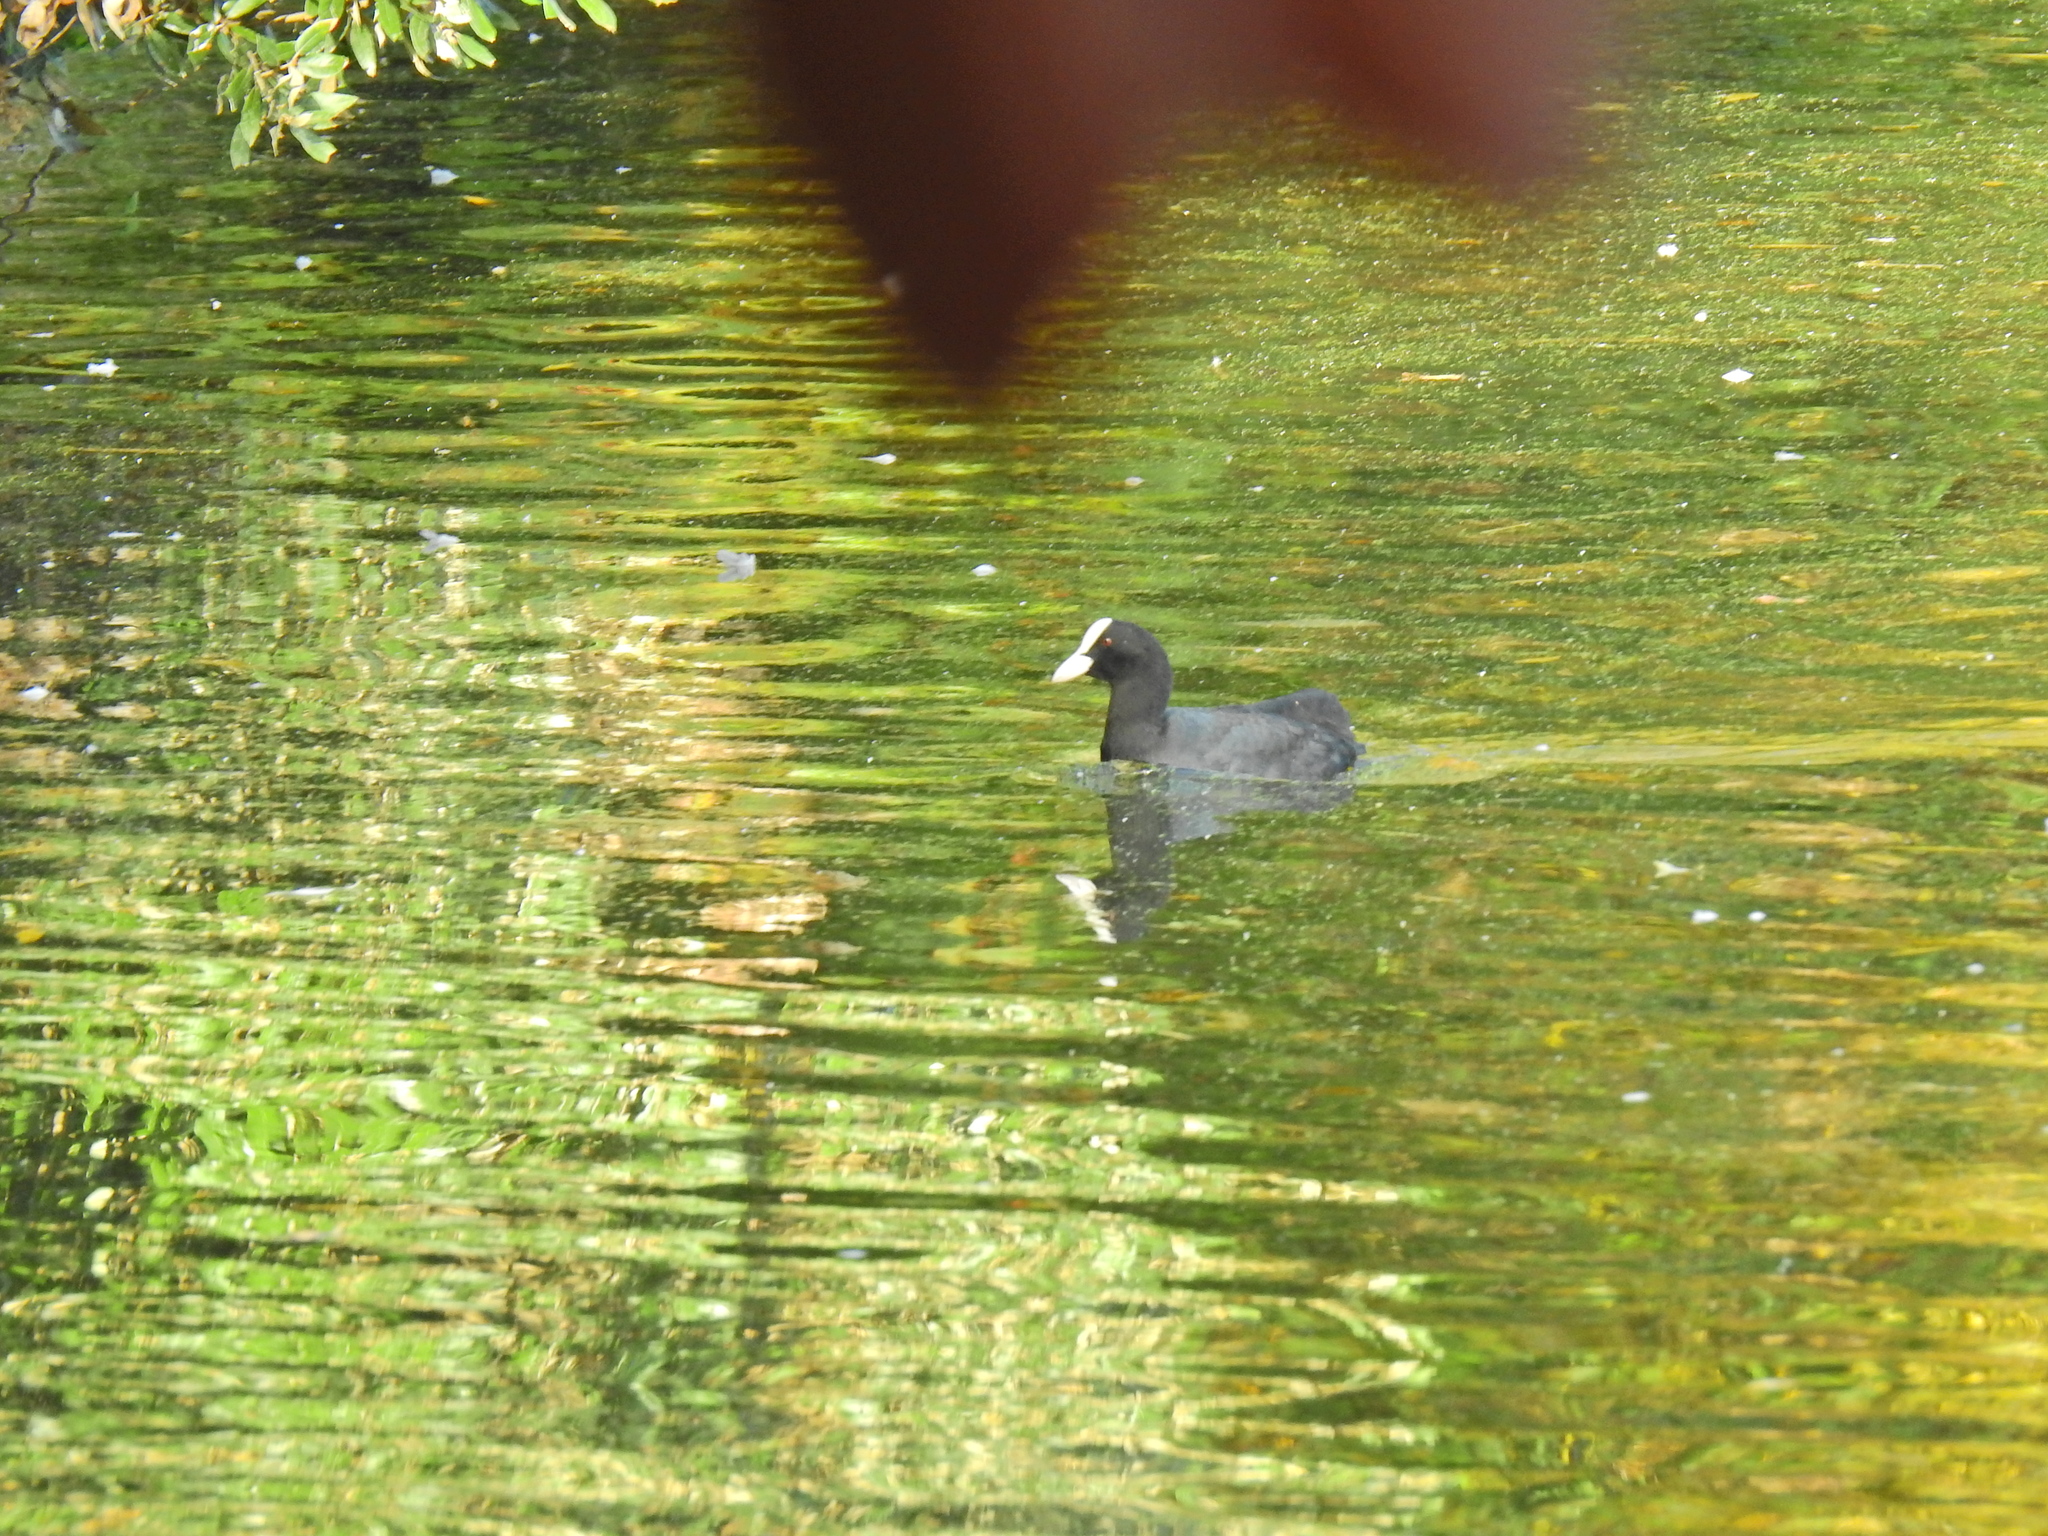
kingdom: Animalia
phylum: Chordata
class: Aves
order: Gruiformes
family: Rallidae
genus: Fulica
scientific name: Fulica atra
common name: Eurasian coot
